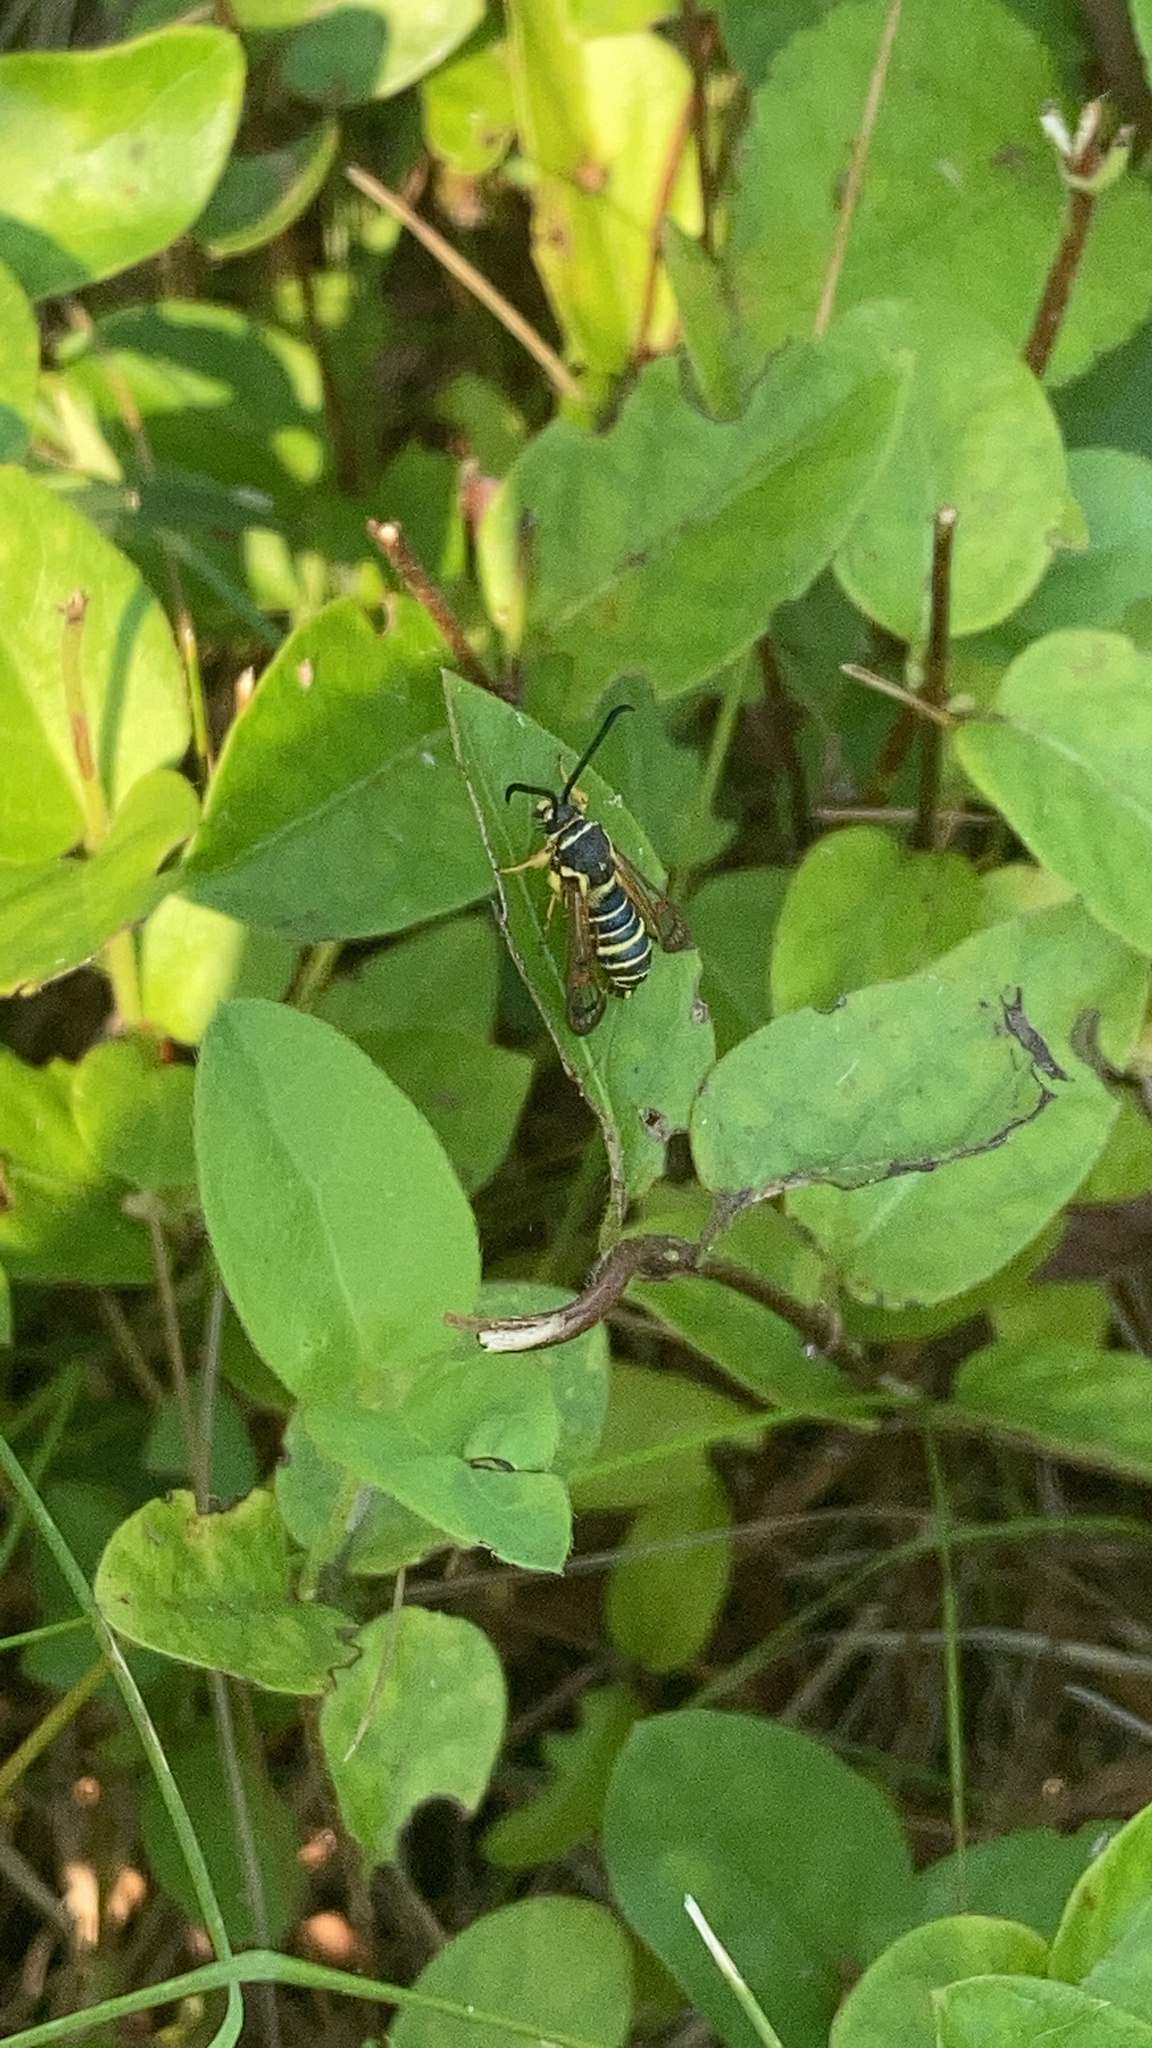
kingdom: Animalia
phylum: Arthropoda
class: Insecta
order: Lepidoptera
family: Sesiidae
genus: Synanthedon
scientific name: Synanthedon rileyana
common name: Riley's clearwing moth
